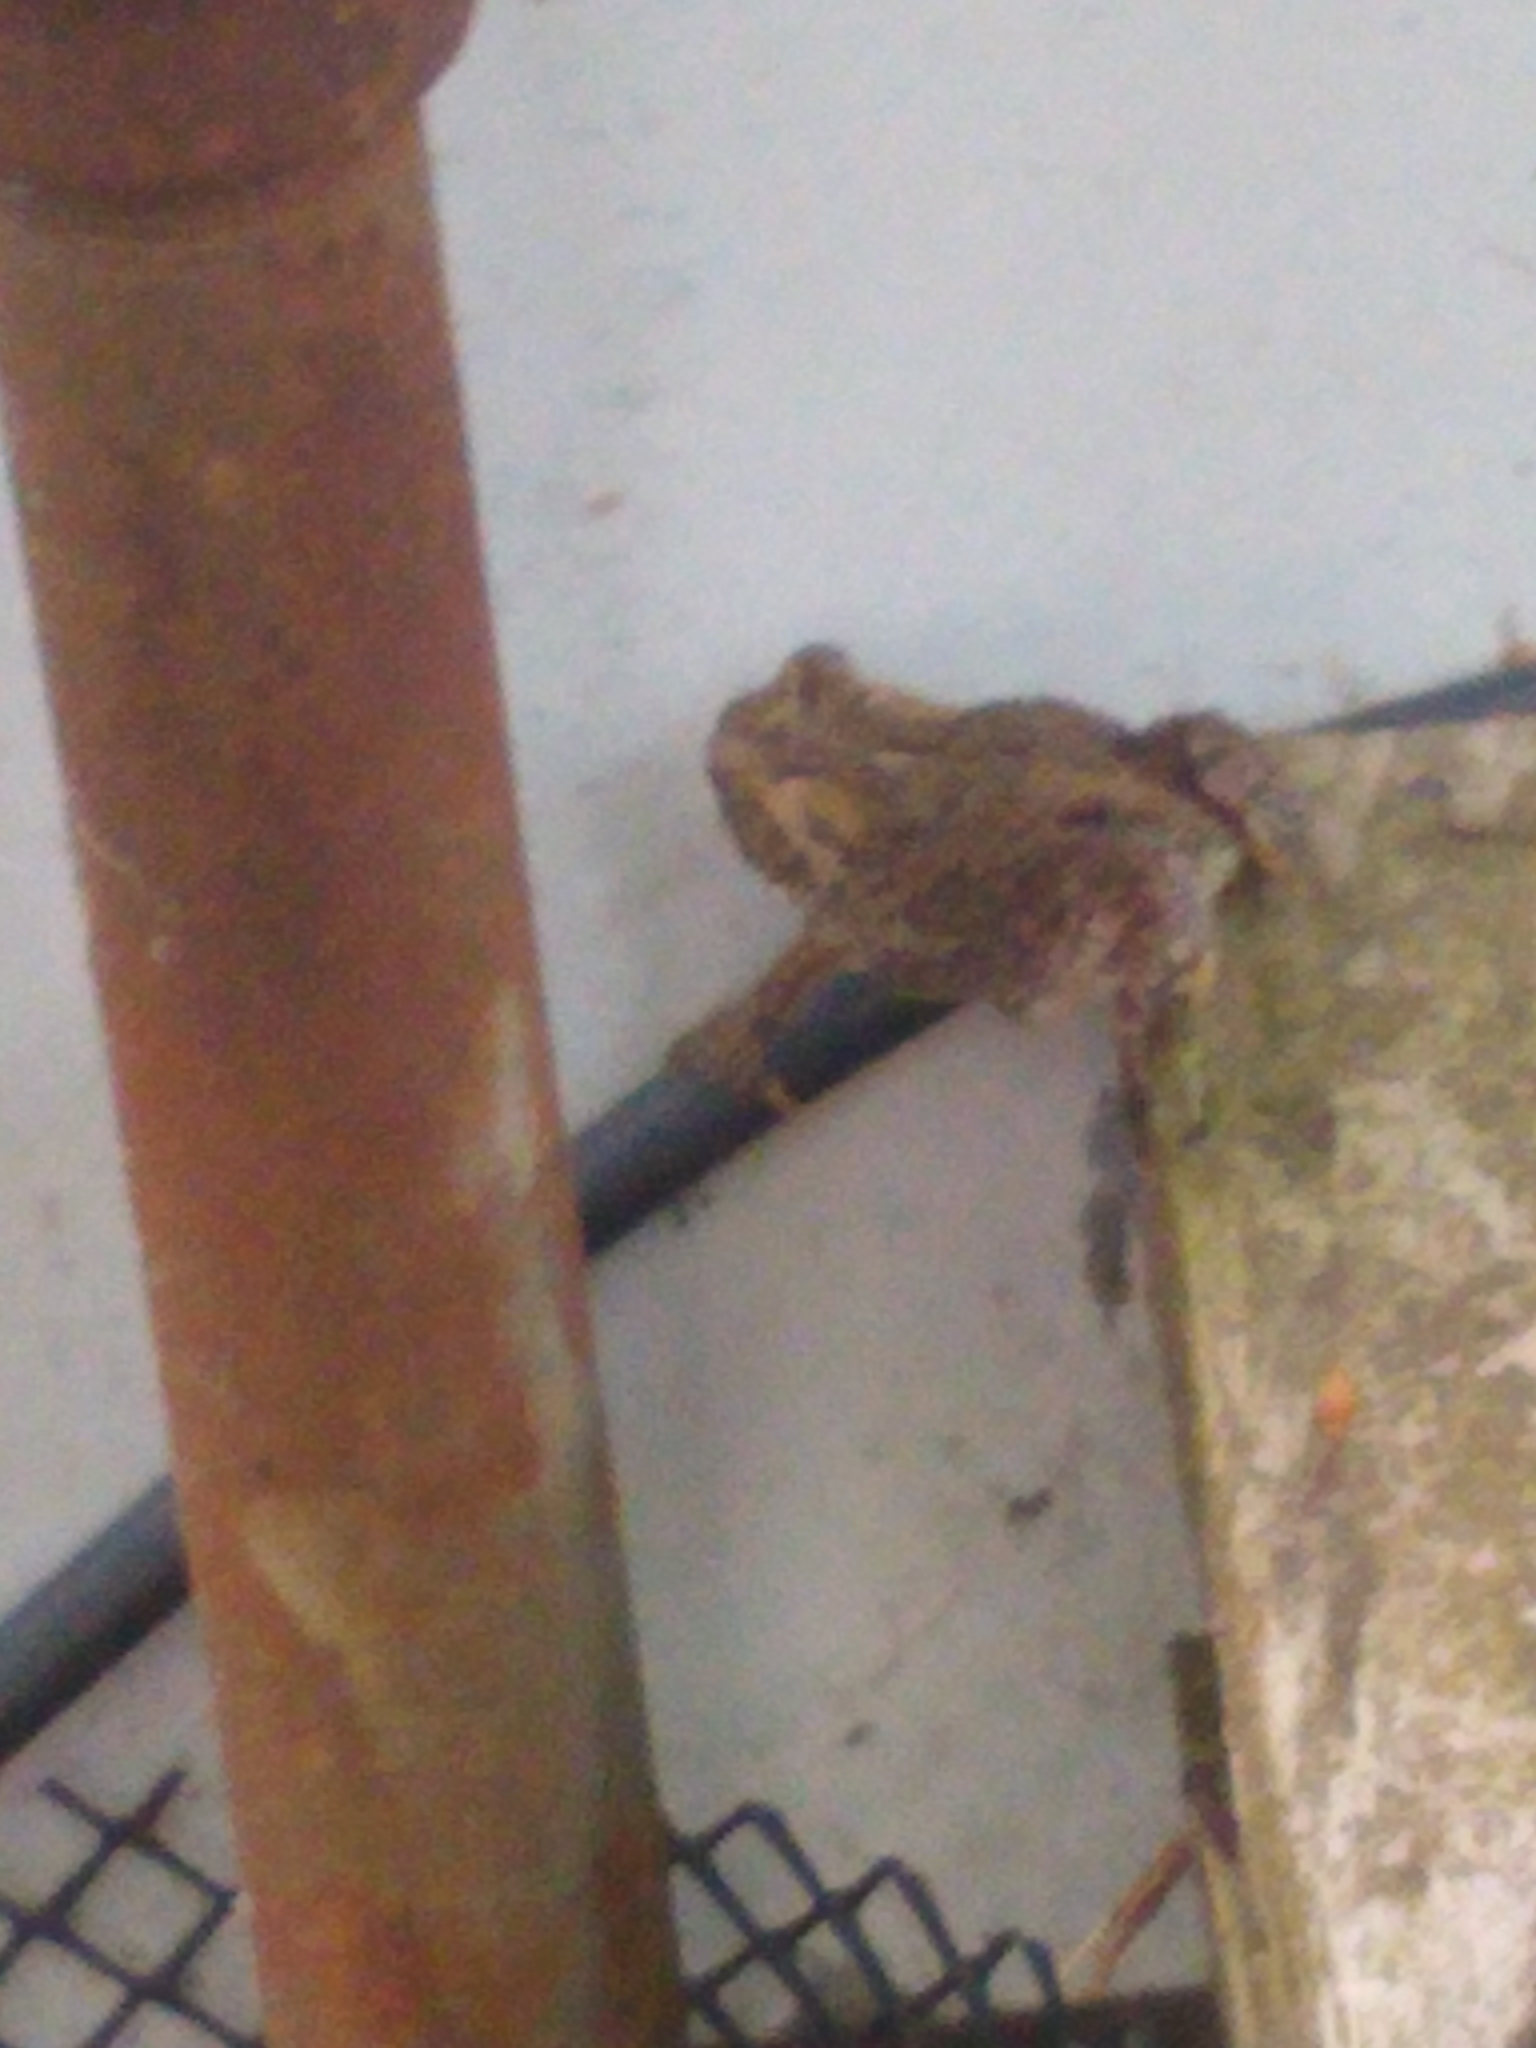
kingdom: Animalia
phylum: Chordata
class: Amphibia
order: Anura
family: Bufonidae
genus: Anaxyrus
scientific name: Anaxyrus americanus
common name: American toad
